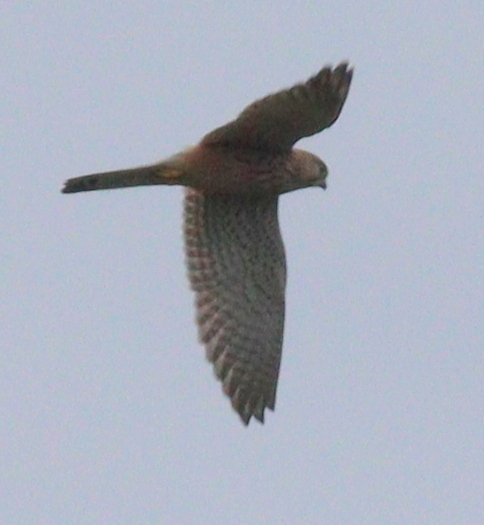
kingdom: Animalia
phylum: Chordata
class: Aves
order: Falconiformes
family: Falconidae
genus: Falco
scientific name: Falco tinnunculus
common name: Common kestrel
